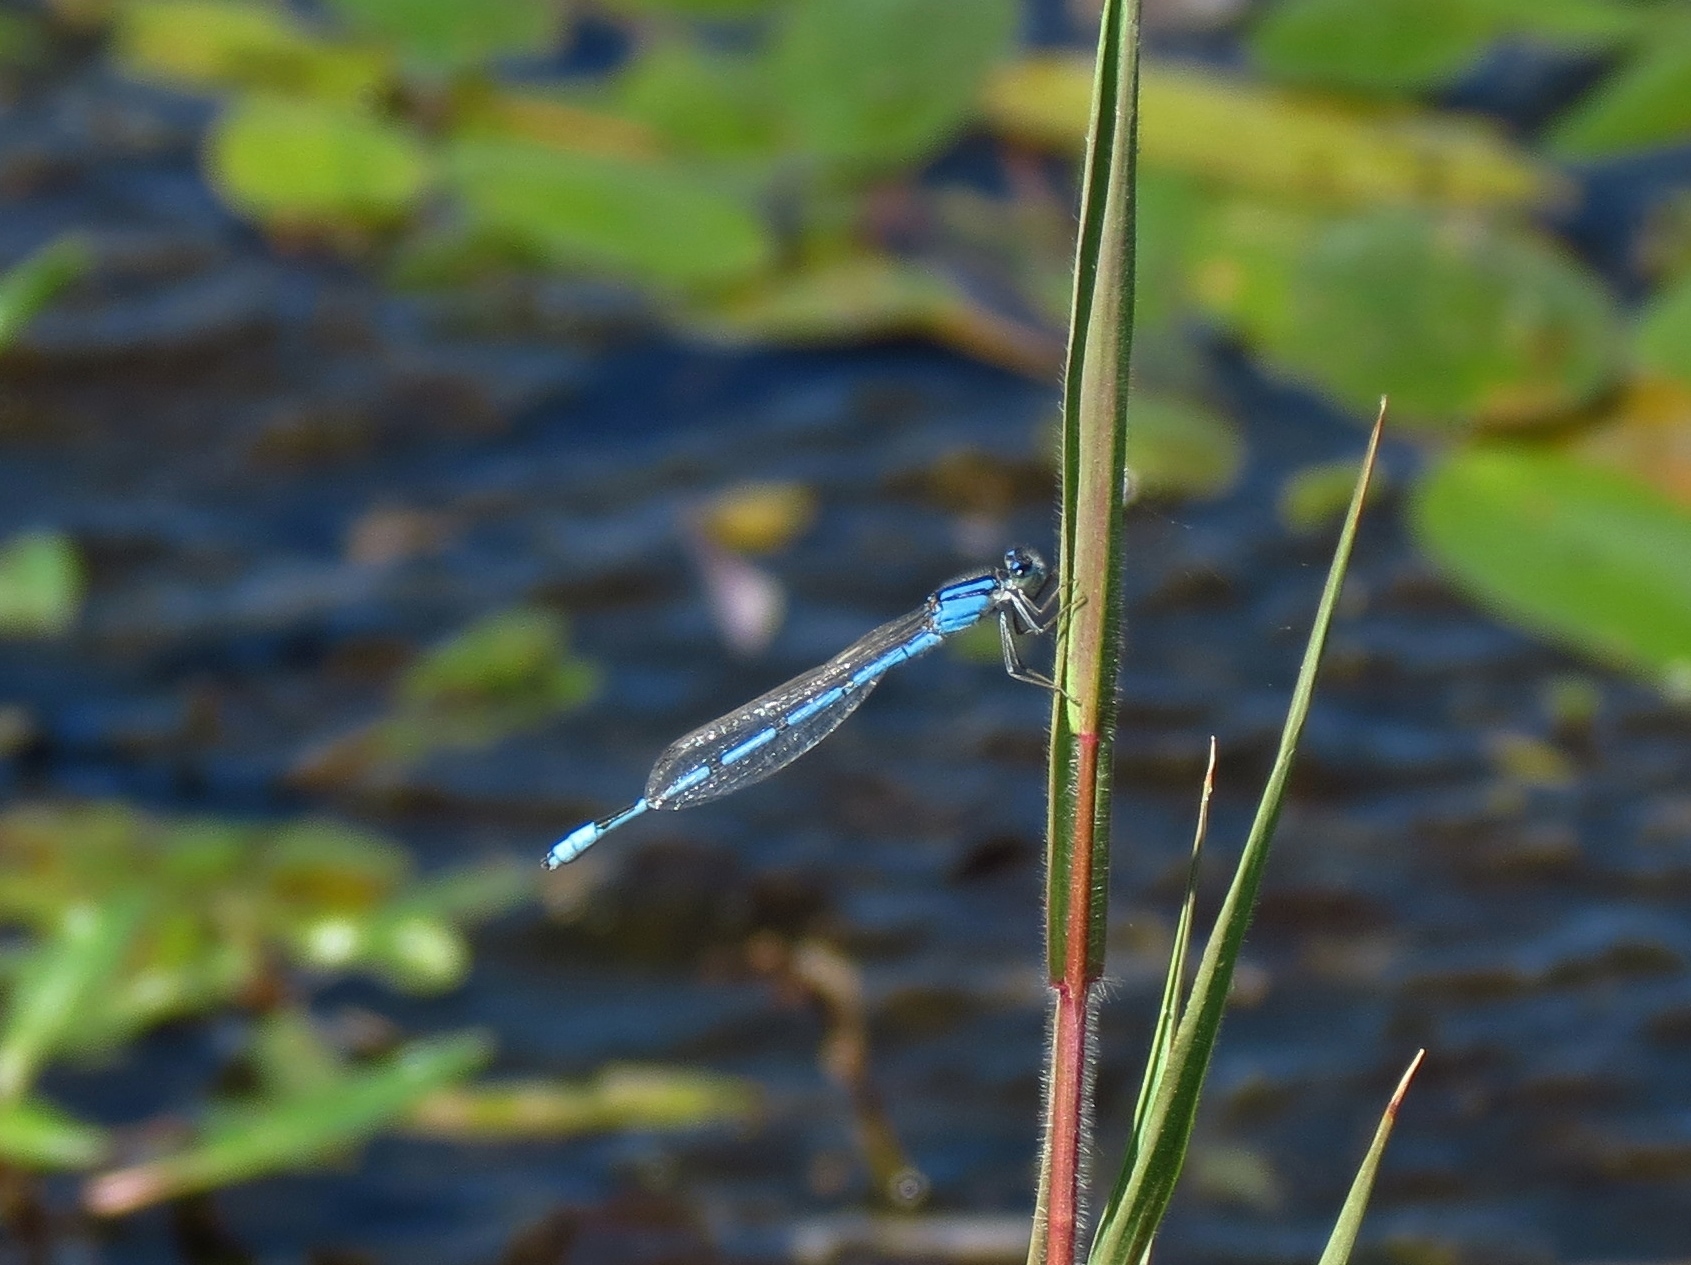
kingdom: Animalia
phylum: Arthropoda
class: Insecta
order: Odonata
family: Coenagrionidae
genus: Enallagma
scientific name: Enallagma civile
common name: Damselfly
